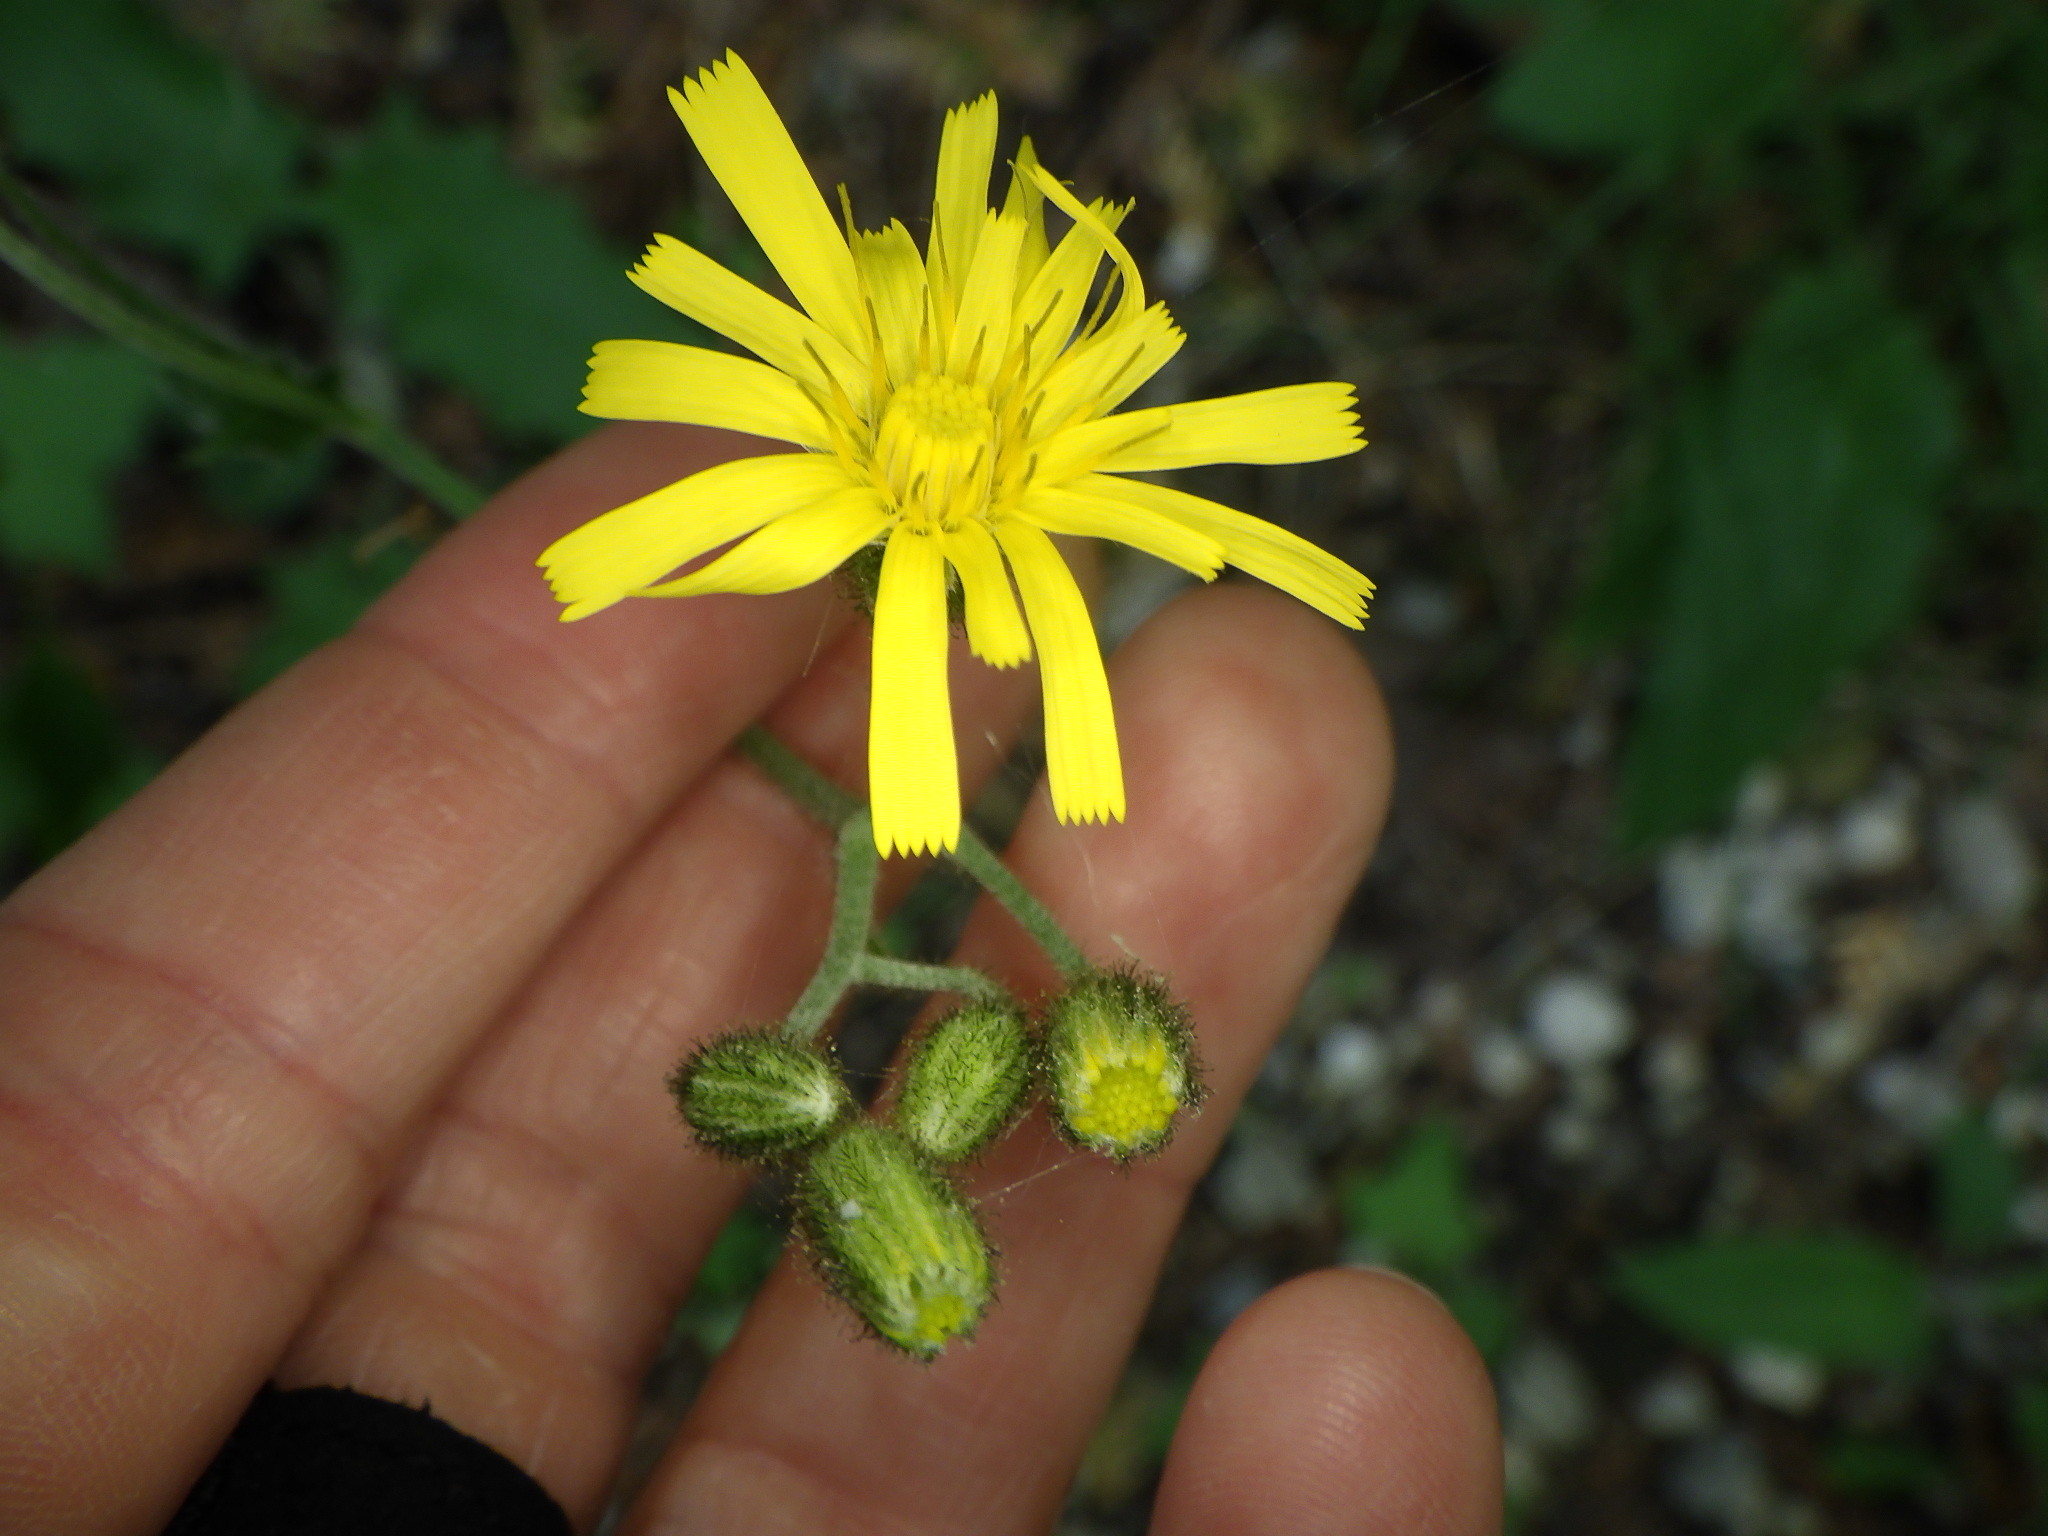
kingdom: Plantae
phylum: Tracheophyta
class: Magnoliopsida
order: Asterales
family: Asteraceae
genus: Hieracium
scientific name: Hieracium murorum
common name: Wall hawkweed
